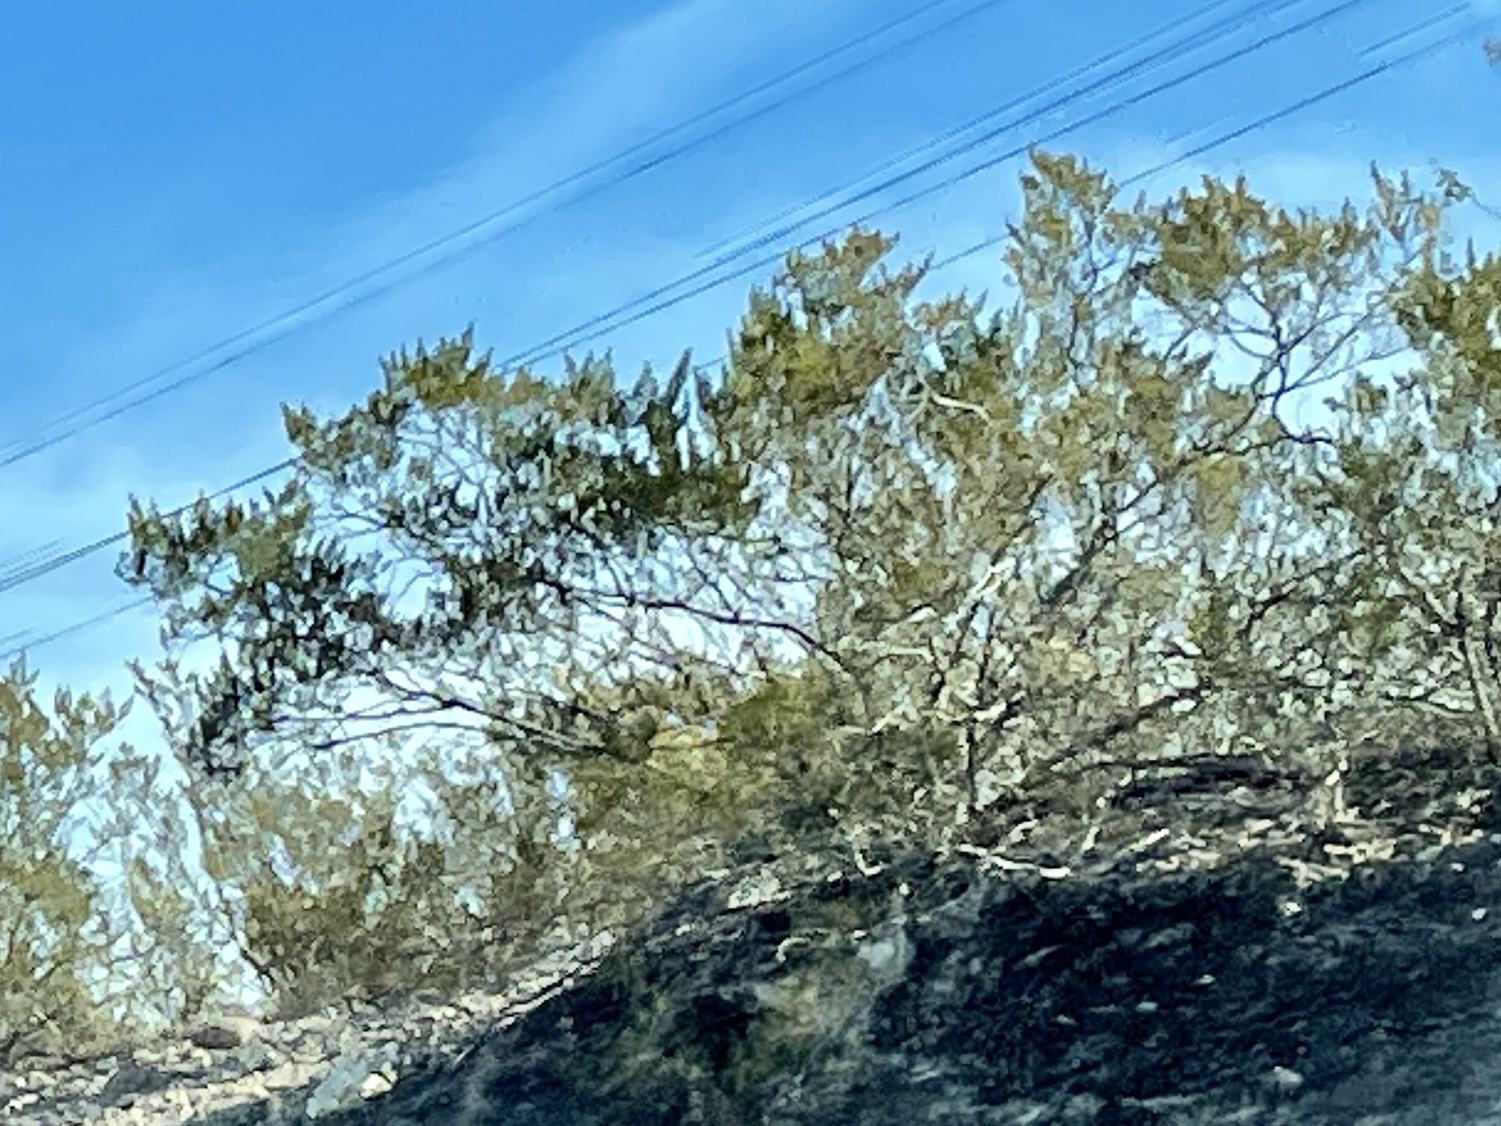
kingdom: Plantae
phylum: Tracheophyta
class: Magnoliopsida
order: Zygophyllales
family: Zygophyllaceae
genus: Larrea
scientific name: Larrea tridentata
